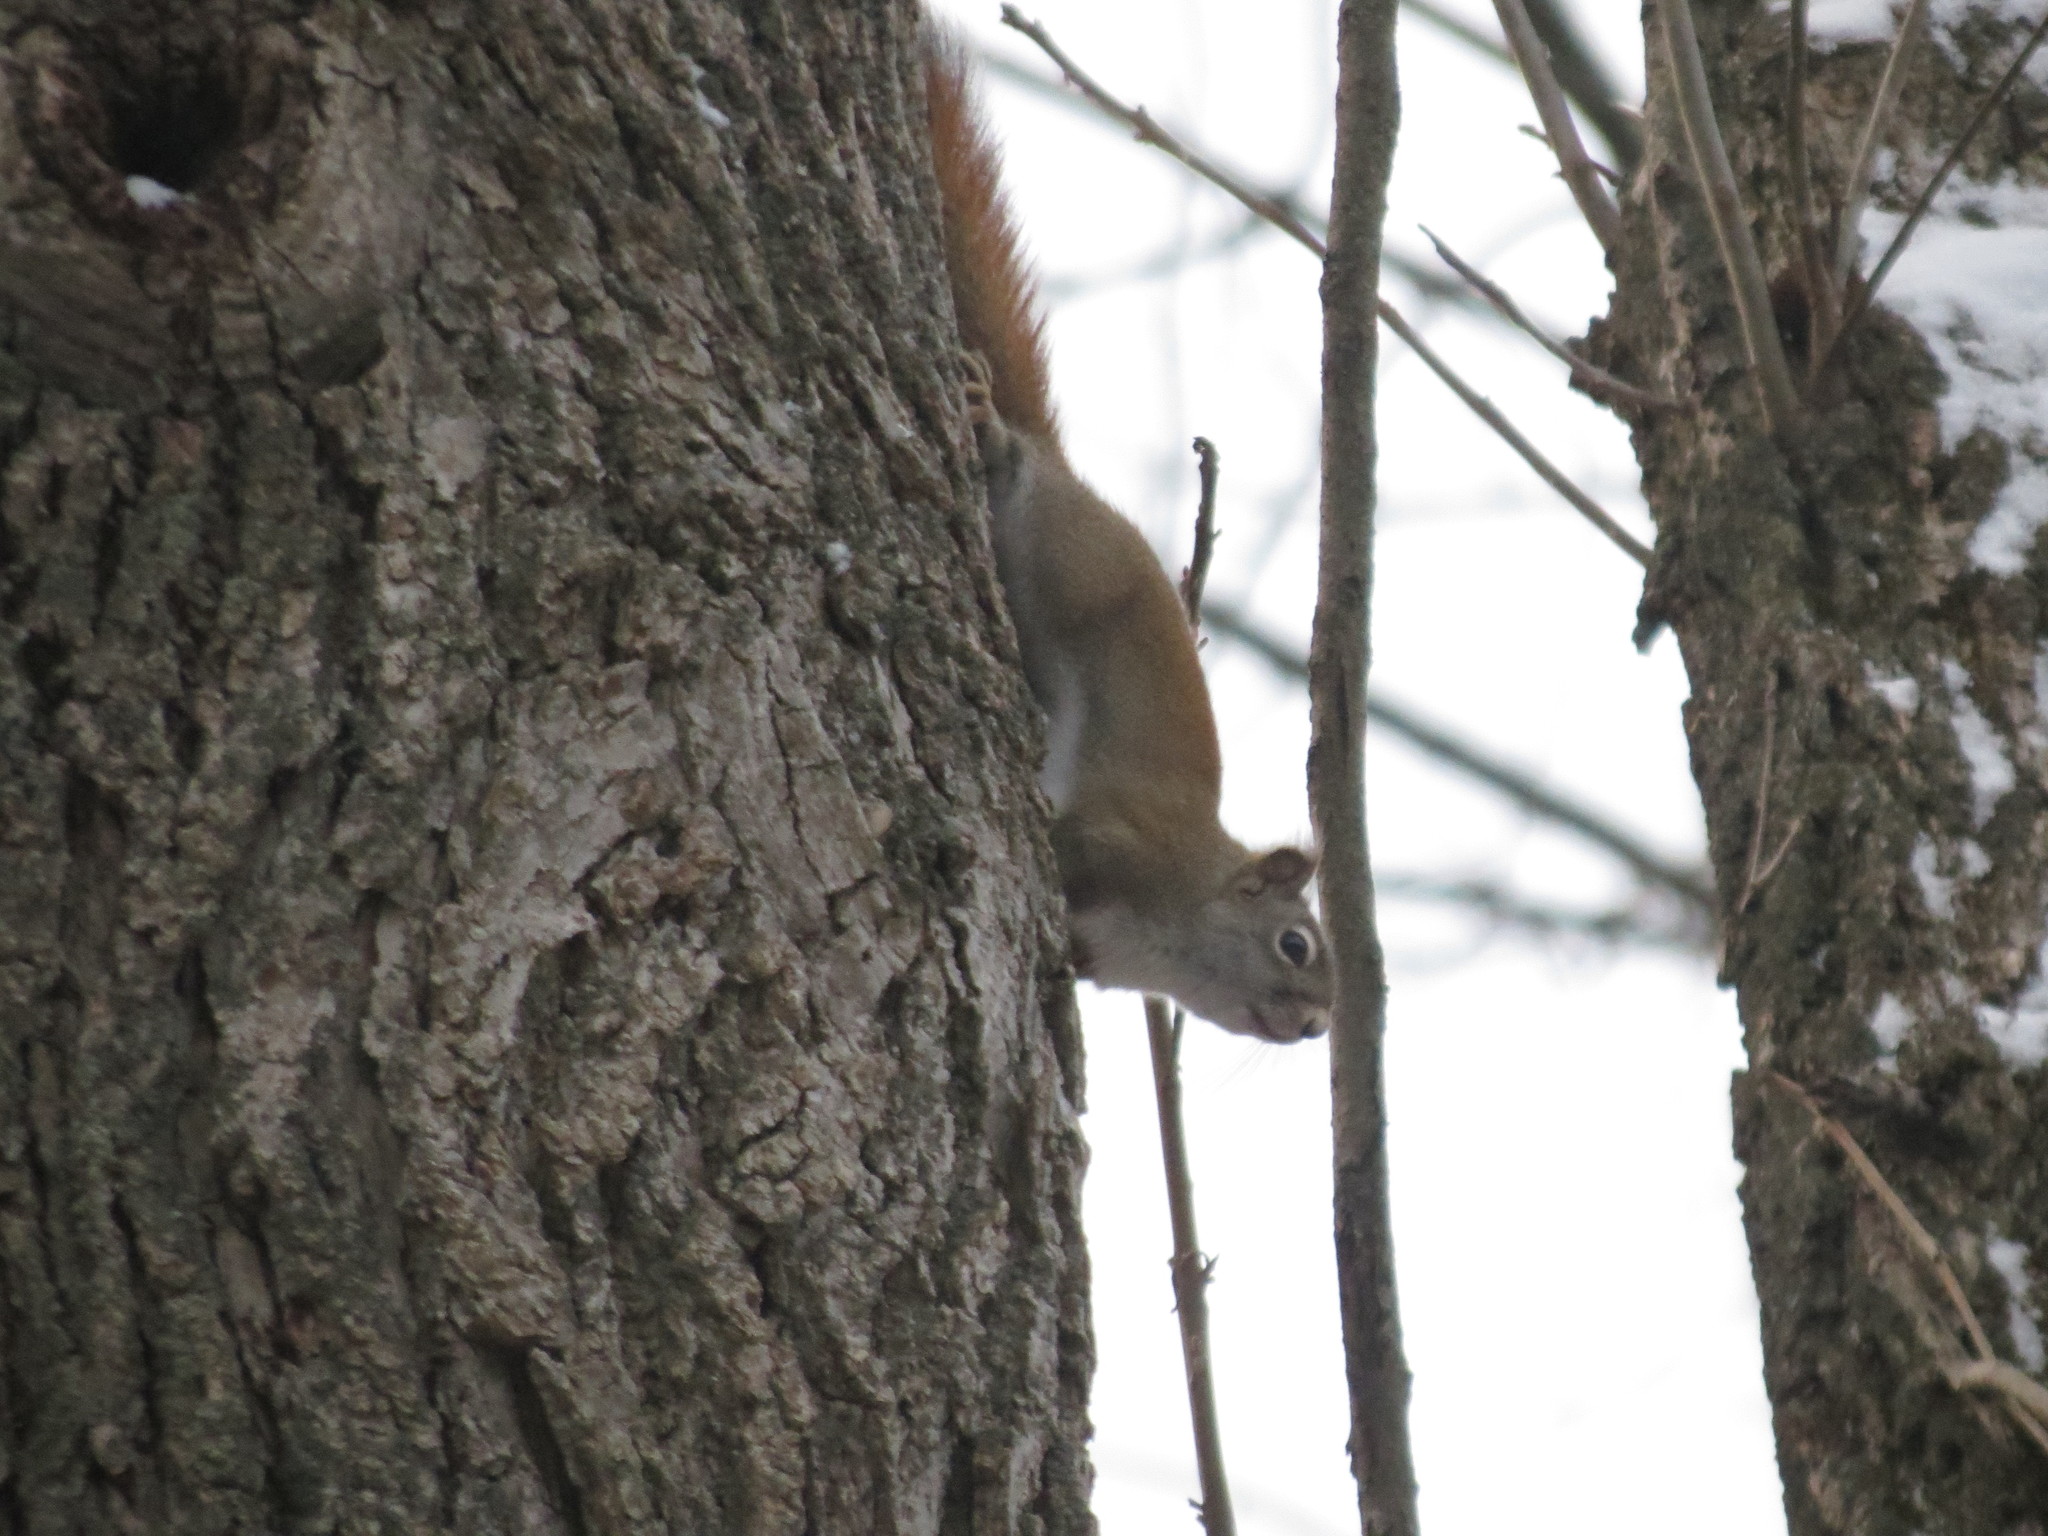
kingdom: Animalia
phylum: Chordata
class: Mammalia
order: Rodentia
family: Sciuridae
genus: Tamiasciurus
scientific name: Tamiasciurus hudsonicus
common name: Red squirrel
